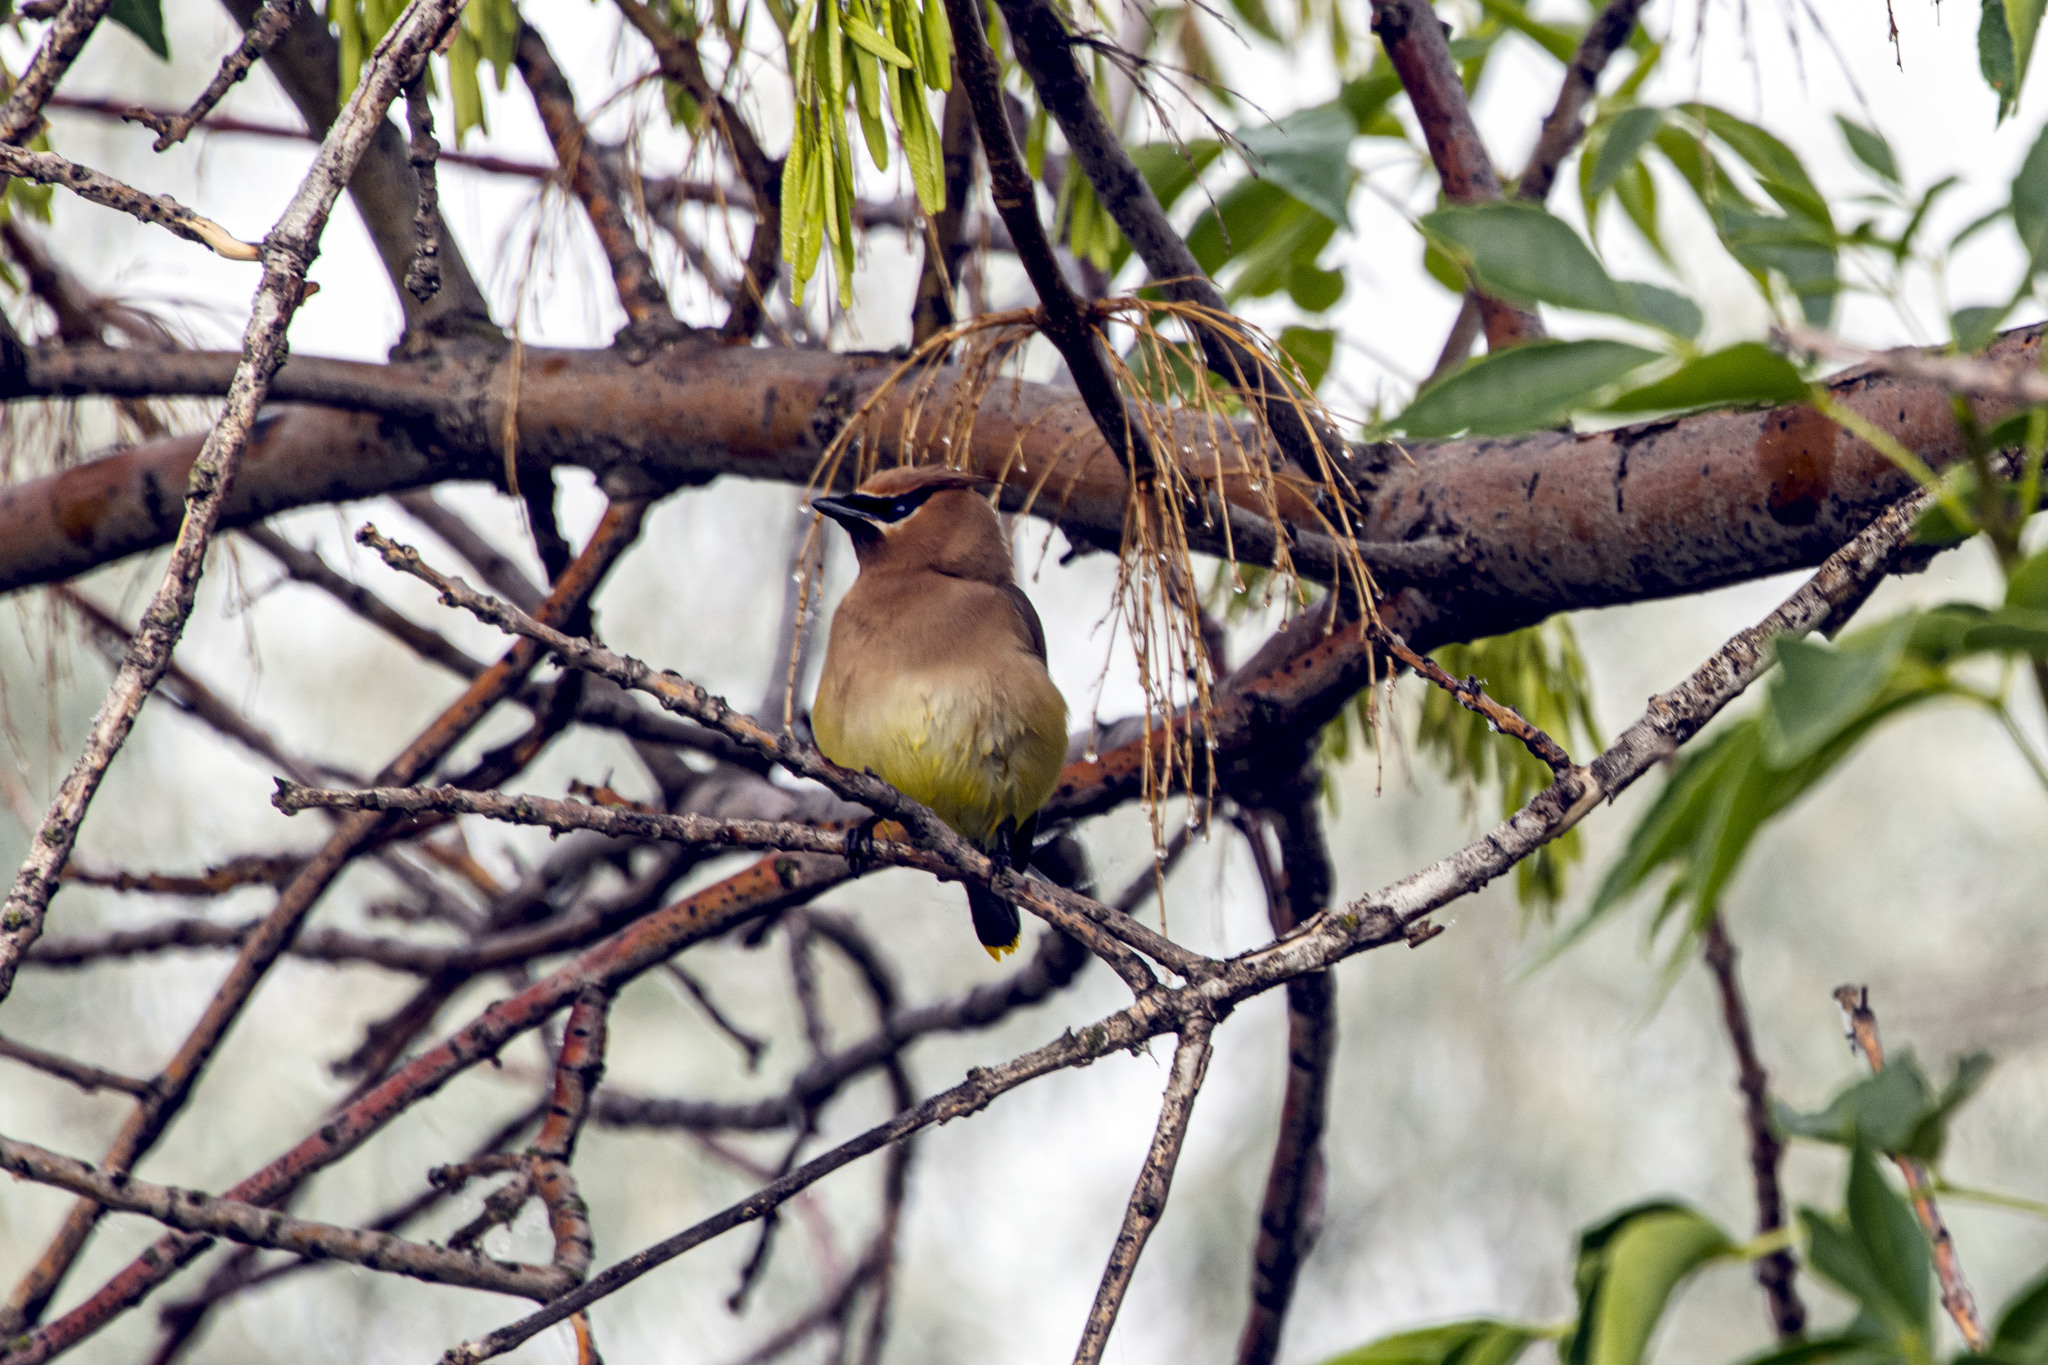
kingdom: Animalia
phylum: Chordata
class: Aves
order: Passeriformes
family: Bombycillidae
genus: Bombycilla
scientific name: Bombycilla cedrorum
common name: Cedar waxwing
